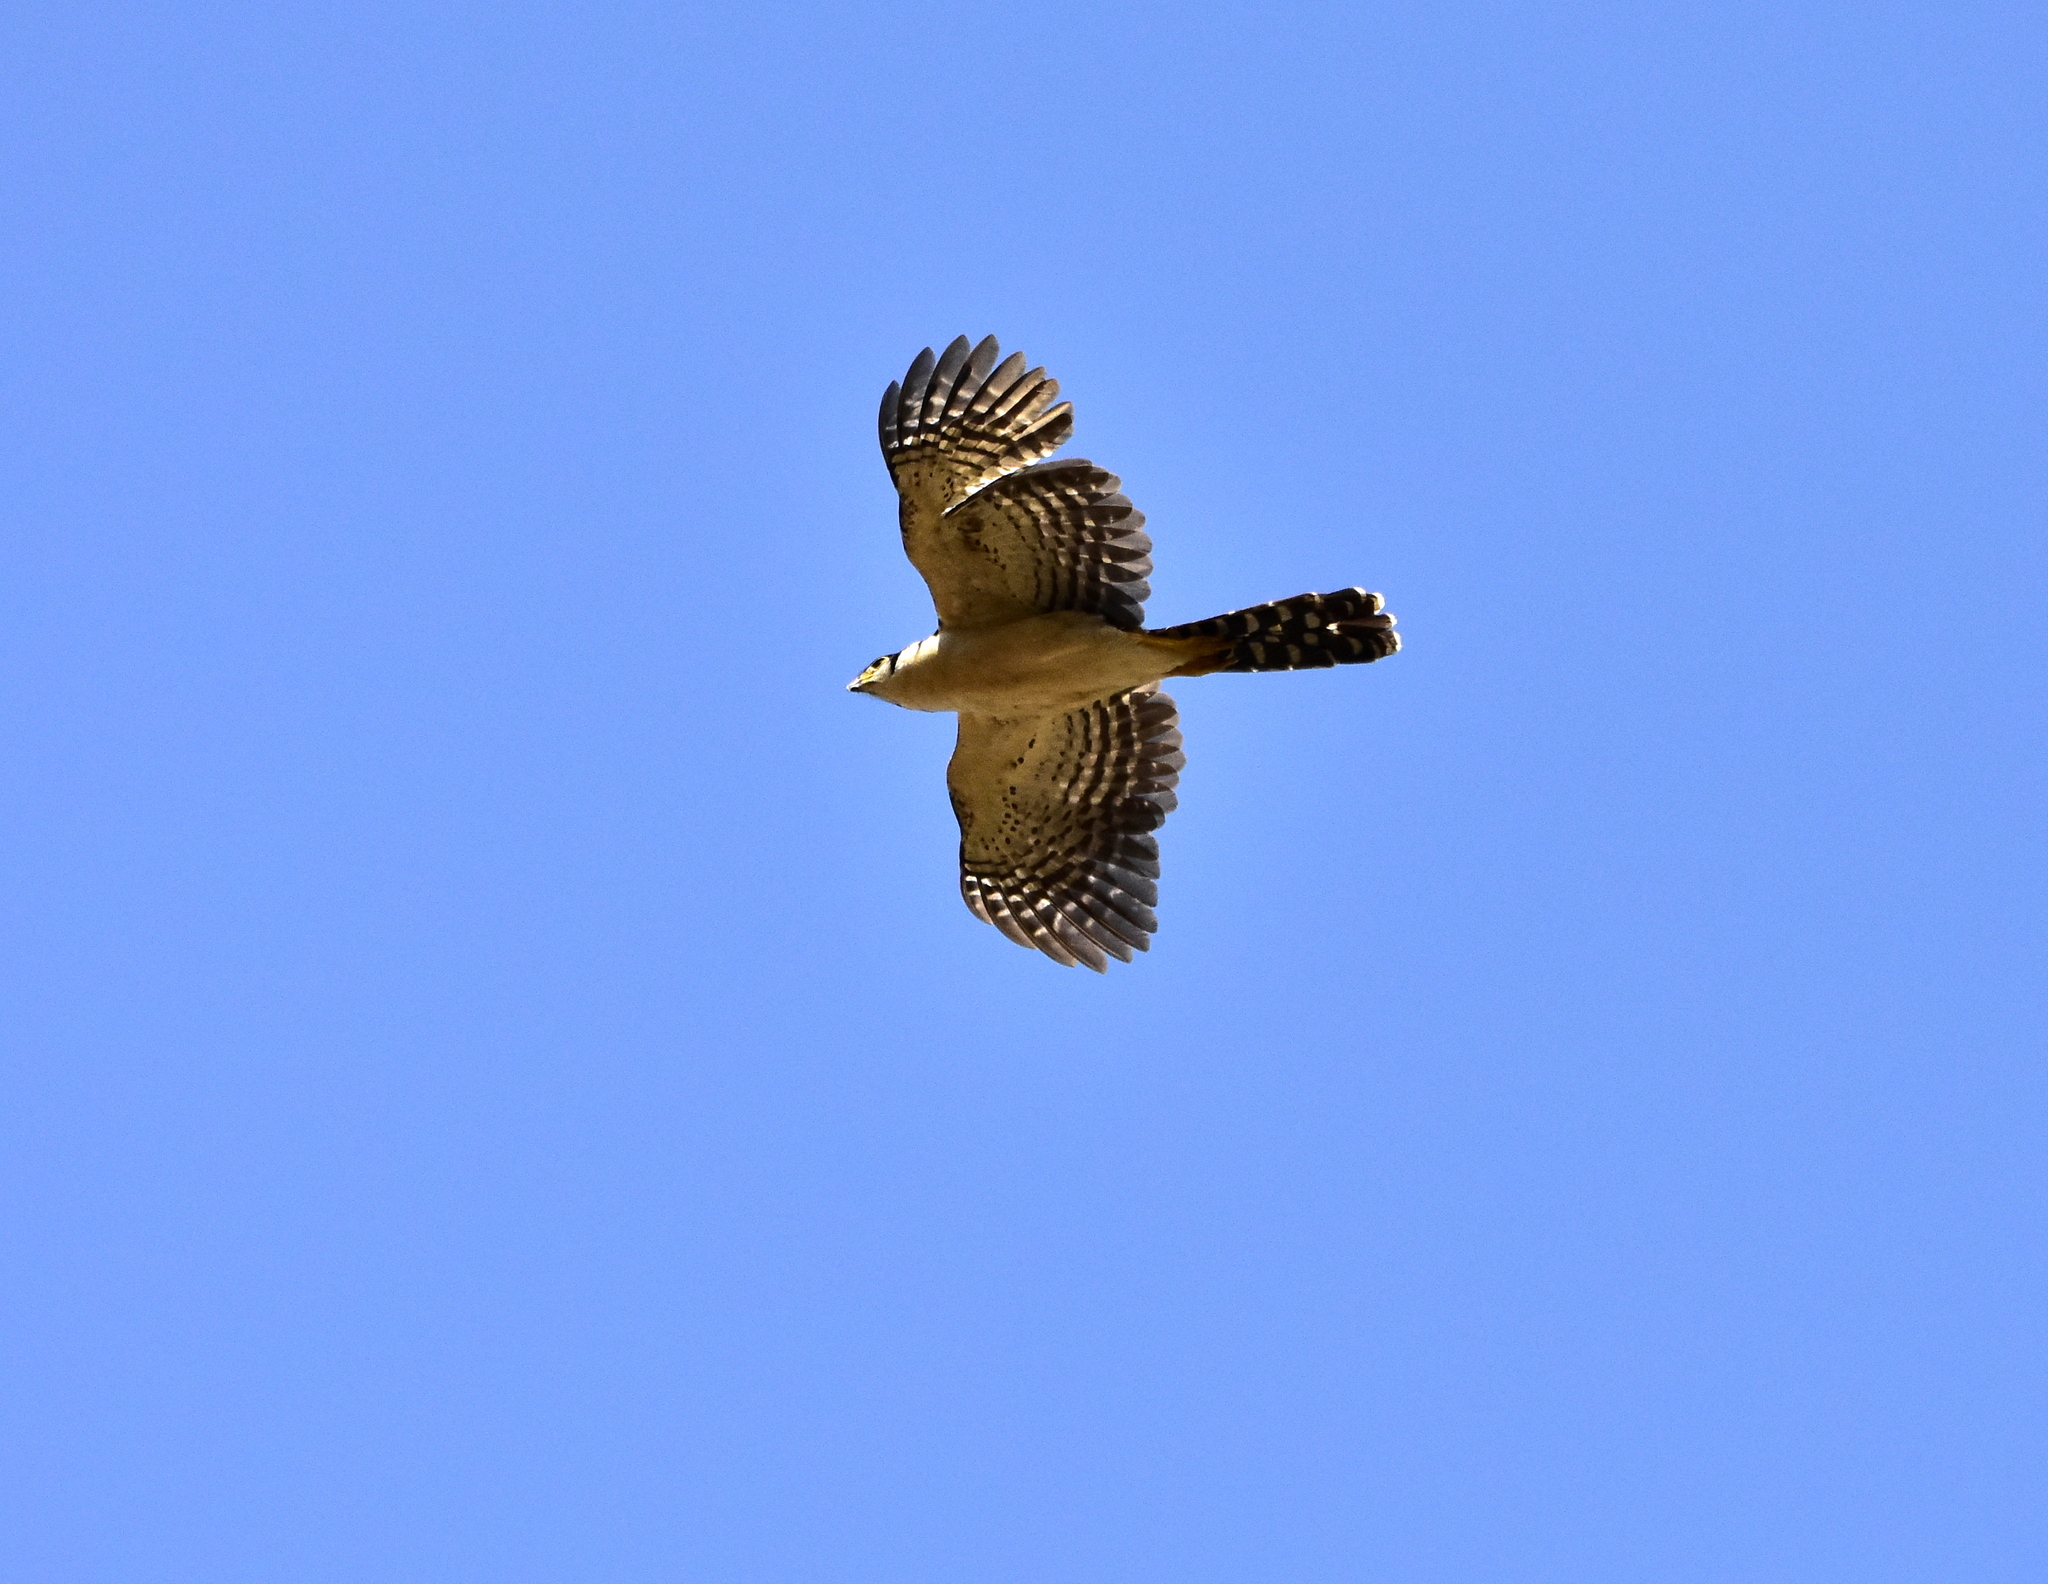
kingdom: Animalia
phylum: Chordata
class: Aves
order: Falconiformes
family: Falconidae
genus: Micrastur
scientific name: Micrastur semitorquatus
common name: Collared forest-falcon
